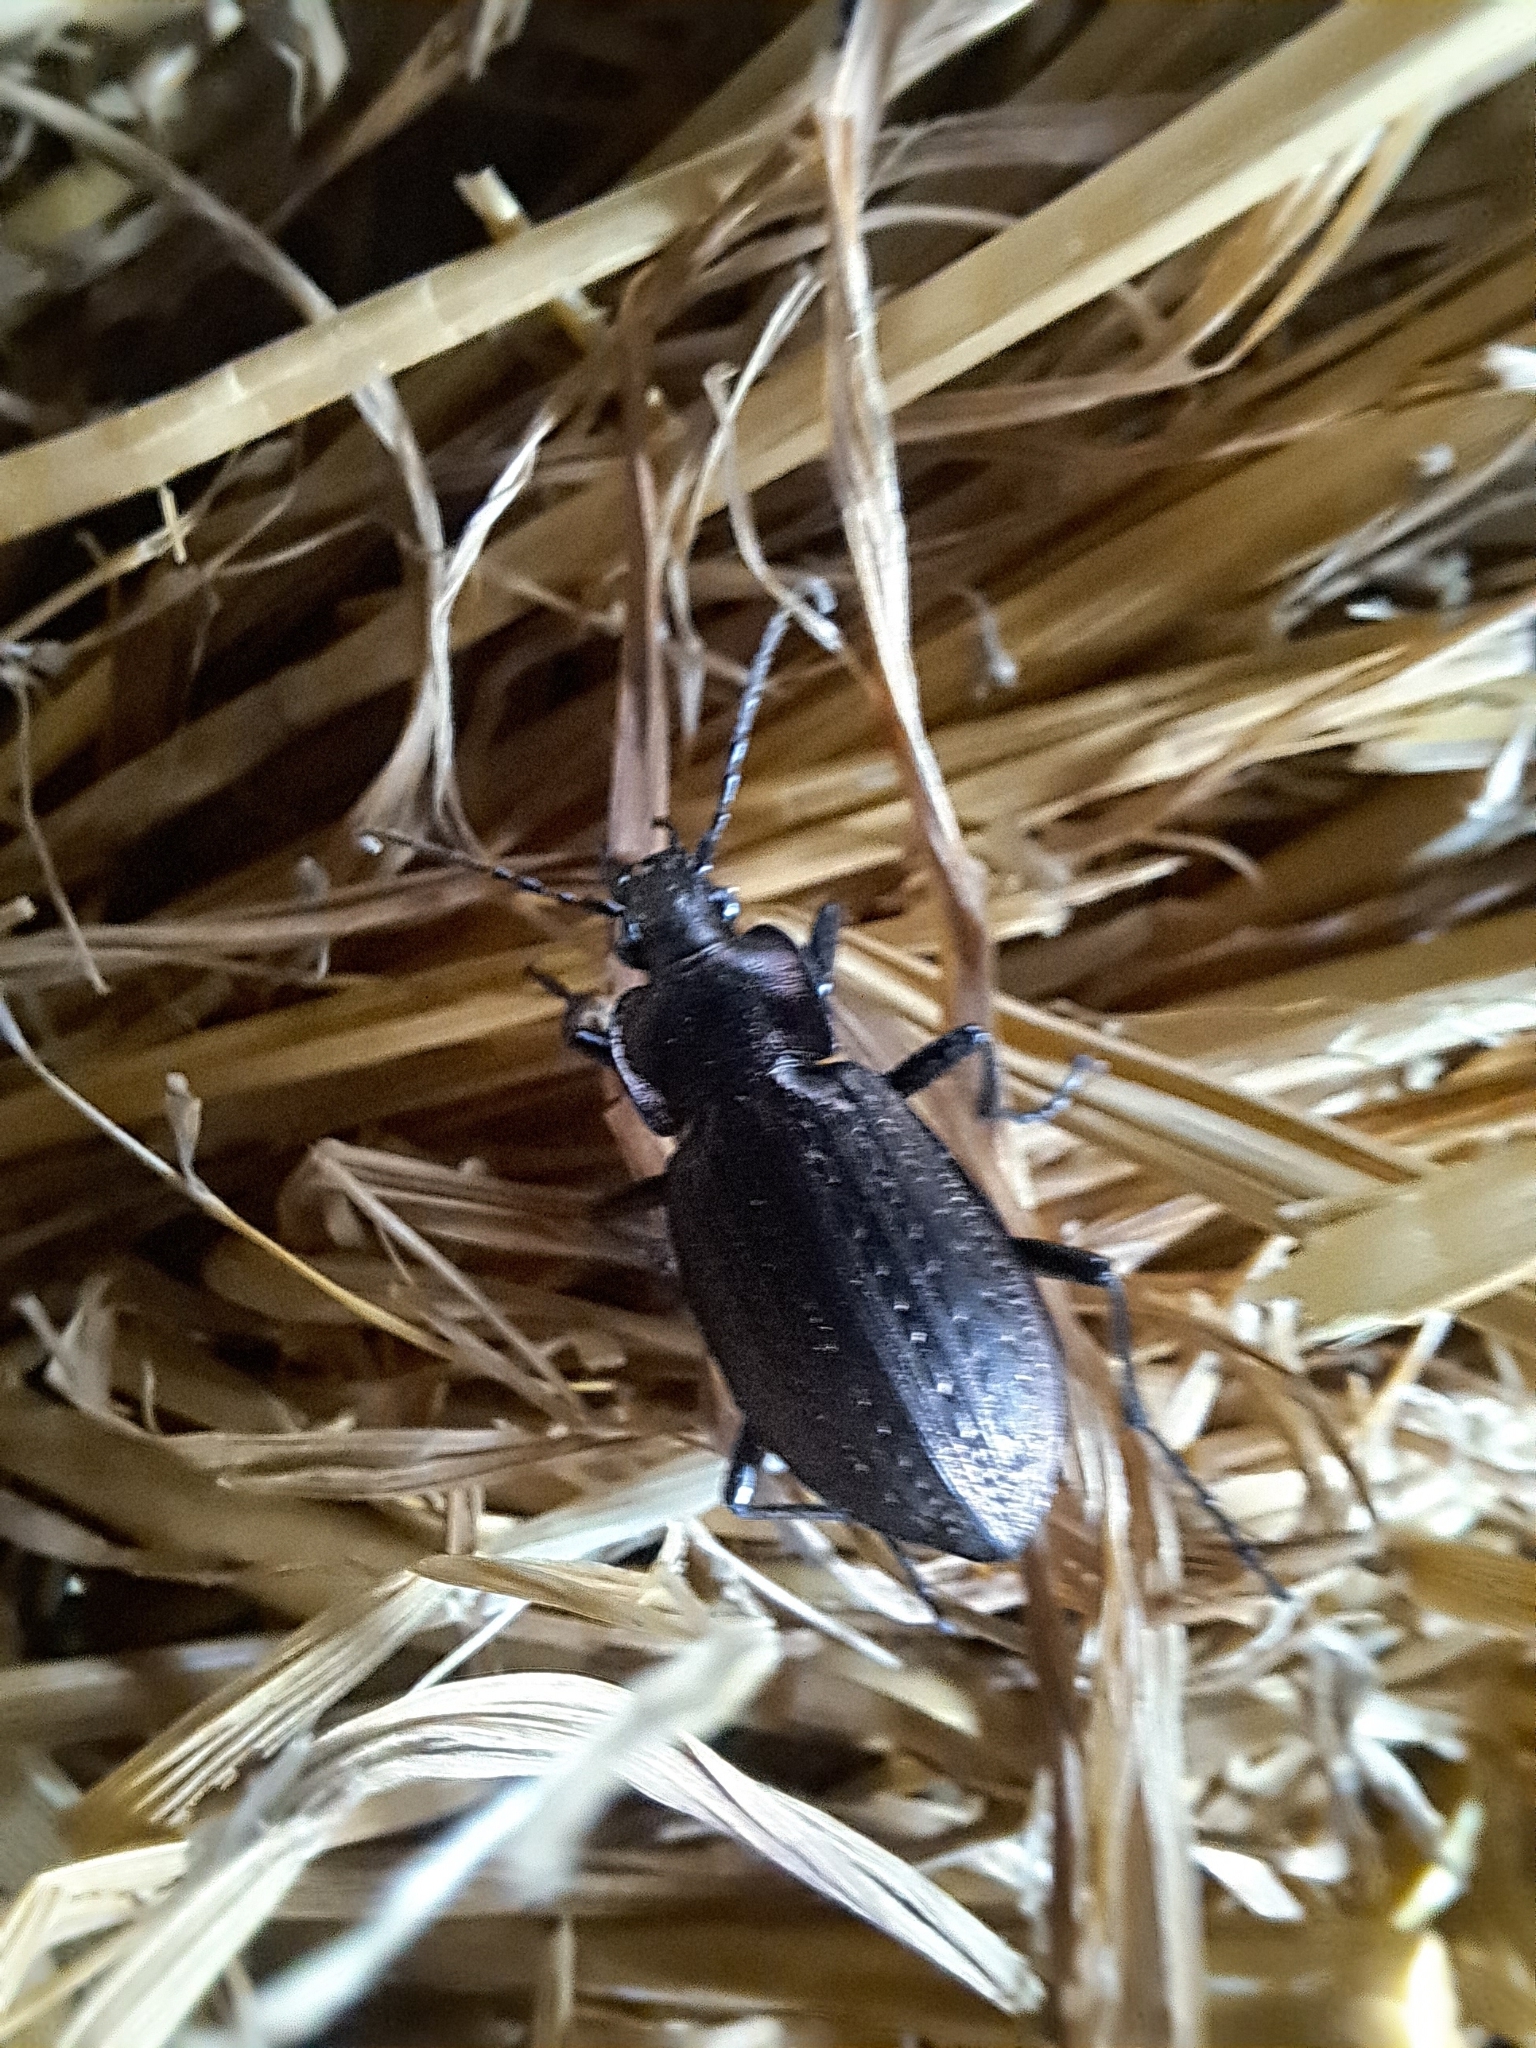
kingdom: Animalia
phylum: Arthropoda
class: Insecta
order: Coleoptera
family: Carabidae
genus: Carabus
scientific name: Carabus granulatus
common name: Granulate ground beetle
